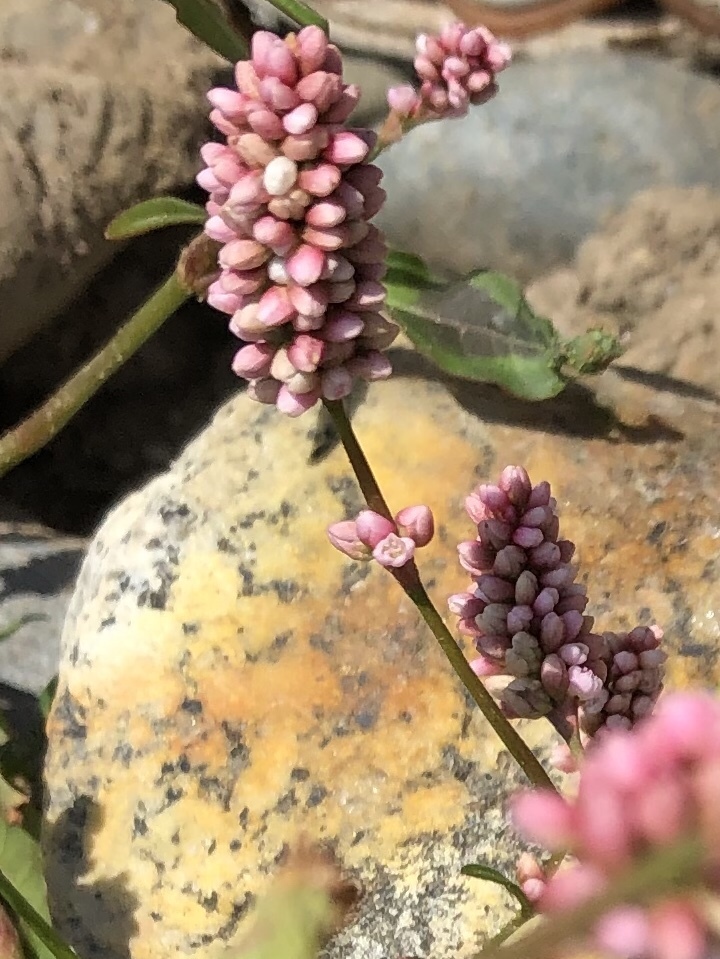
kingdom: Plantae
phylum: Tracheophyta
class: Magnoliopsida
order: Caryophyllales
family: Polygonaceae
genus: Persicaria
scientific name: Persicaria maculosa
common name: Redshank
